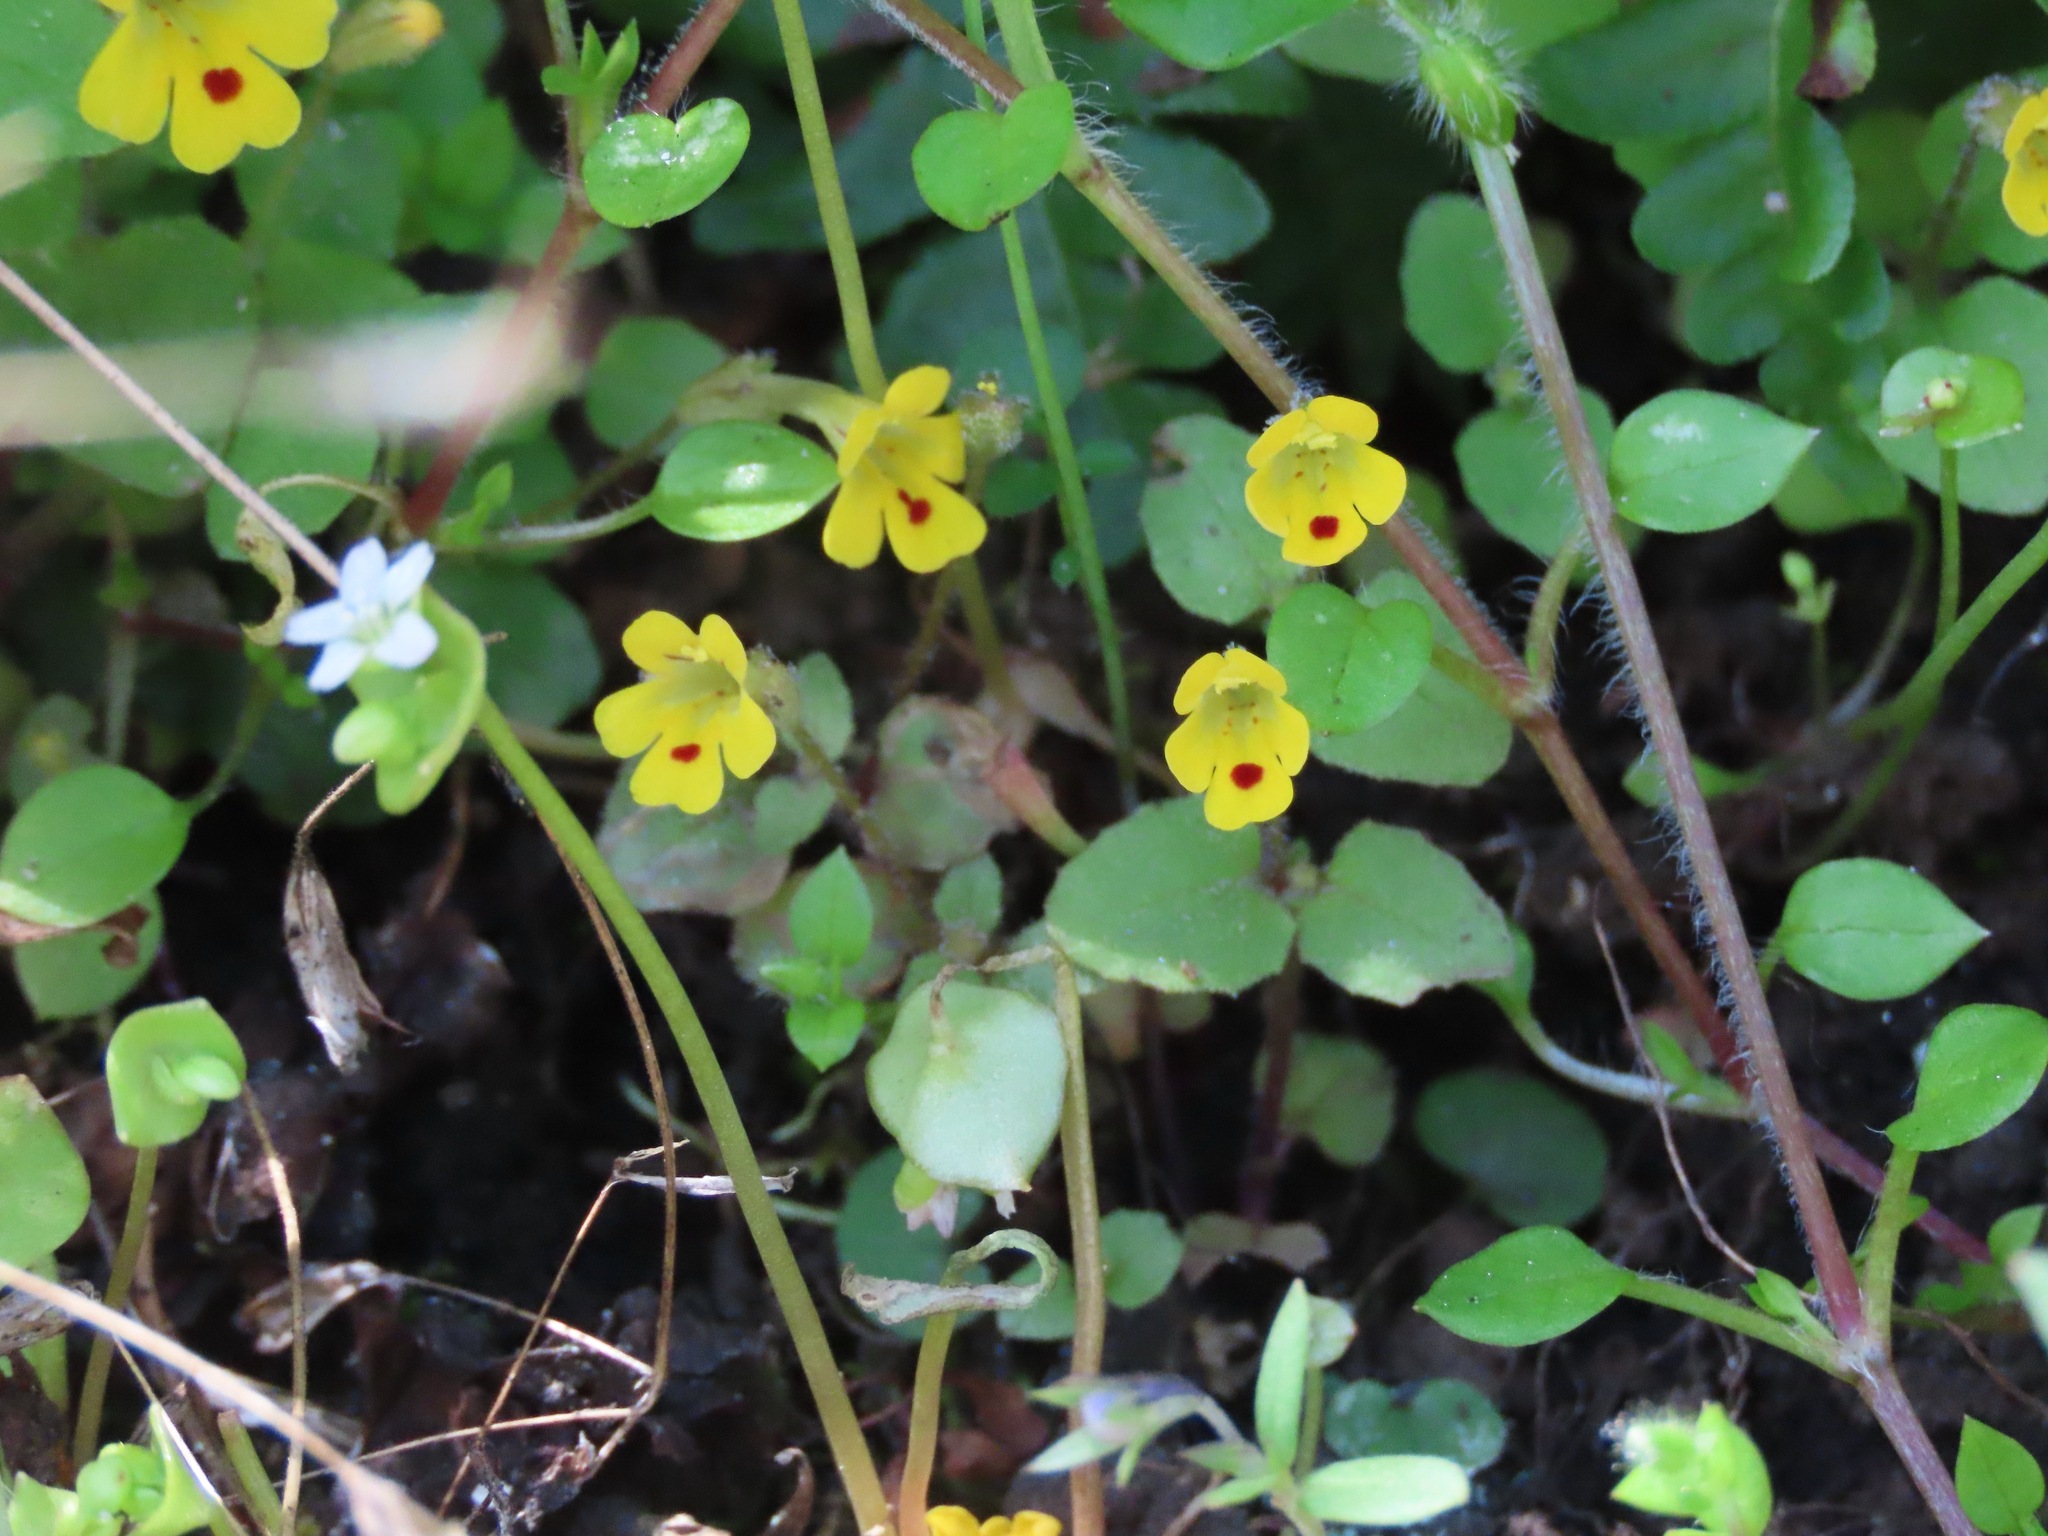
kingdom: Plantae
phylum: Tracheophyta
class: Magnoliopsida
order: Lamiales
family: Phrymaceae
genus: Erythranthe
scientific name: Erythranthe alsinoides
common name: Chickweed monkeyflower
